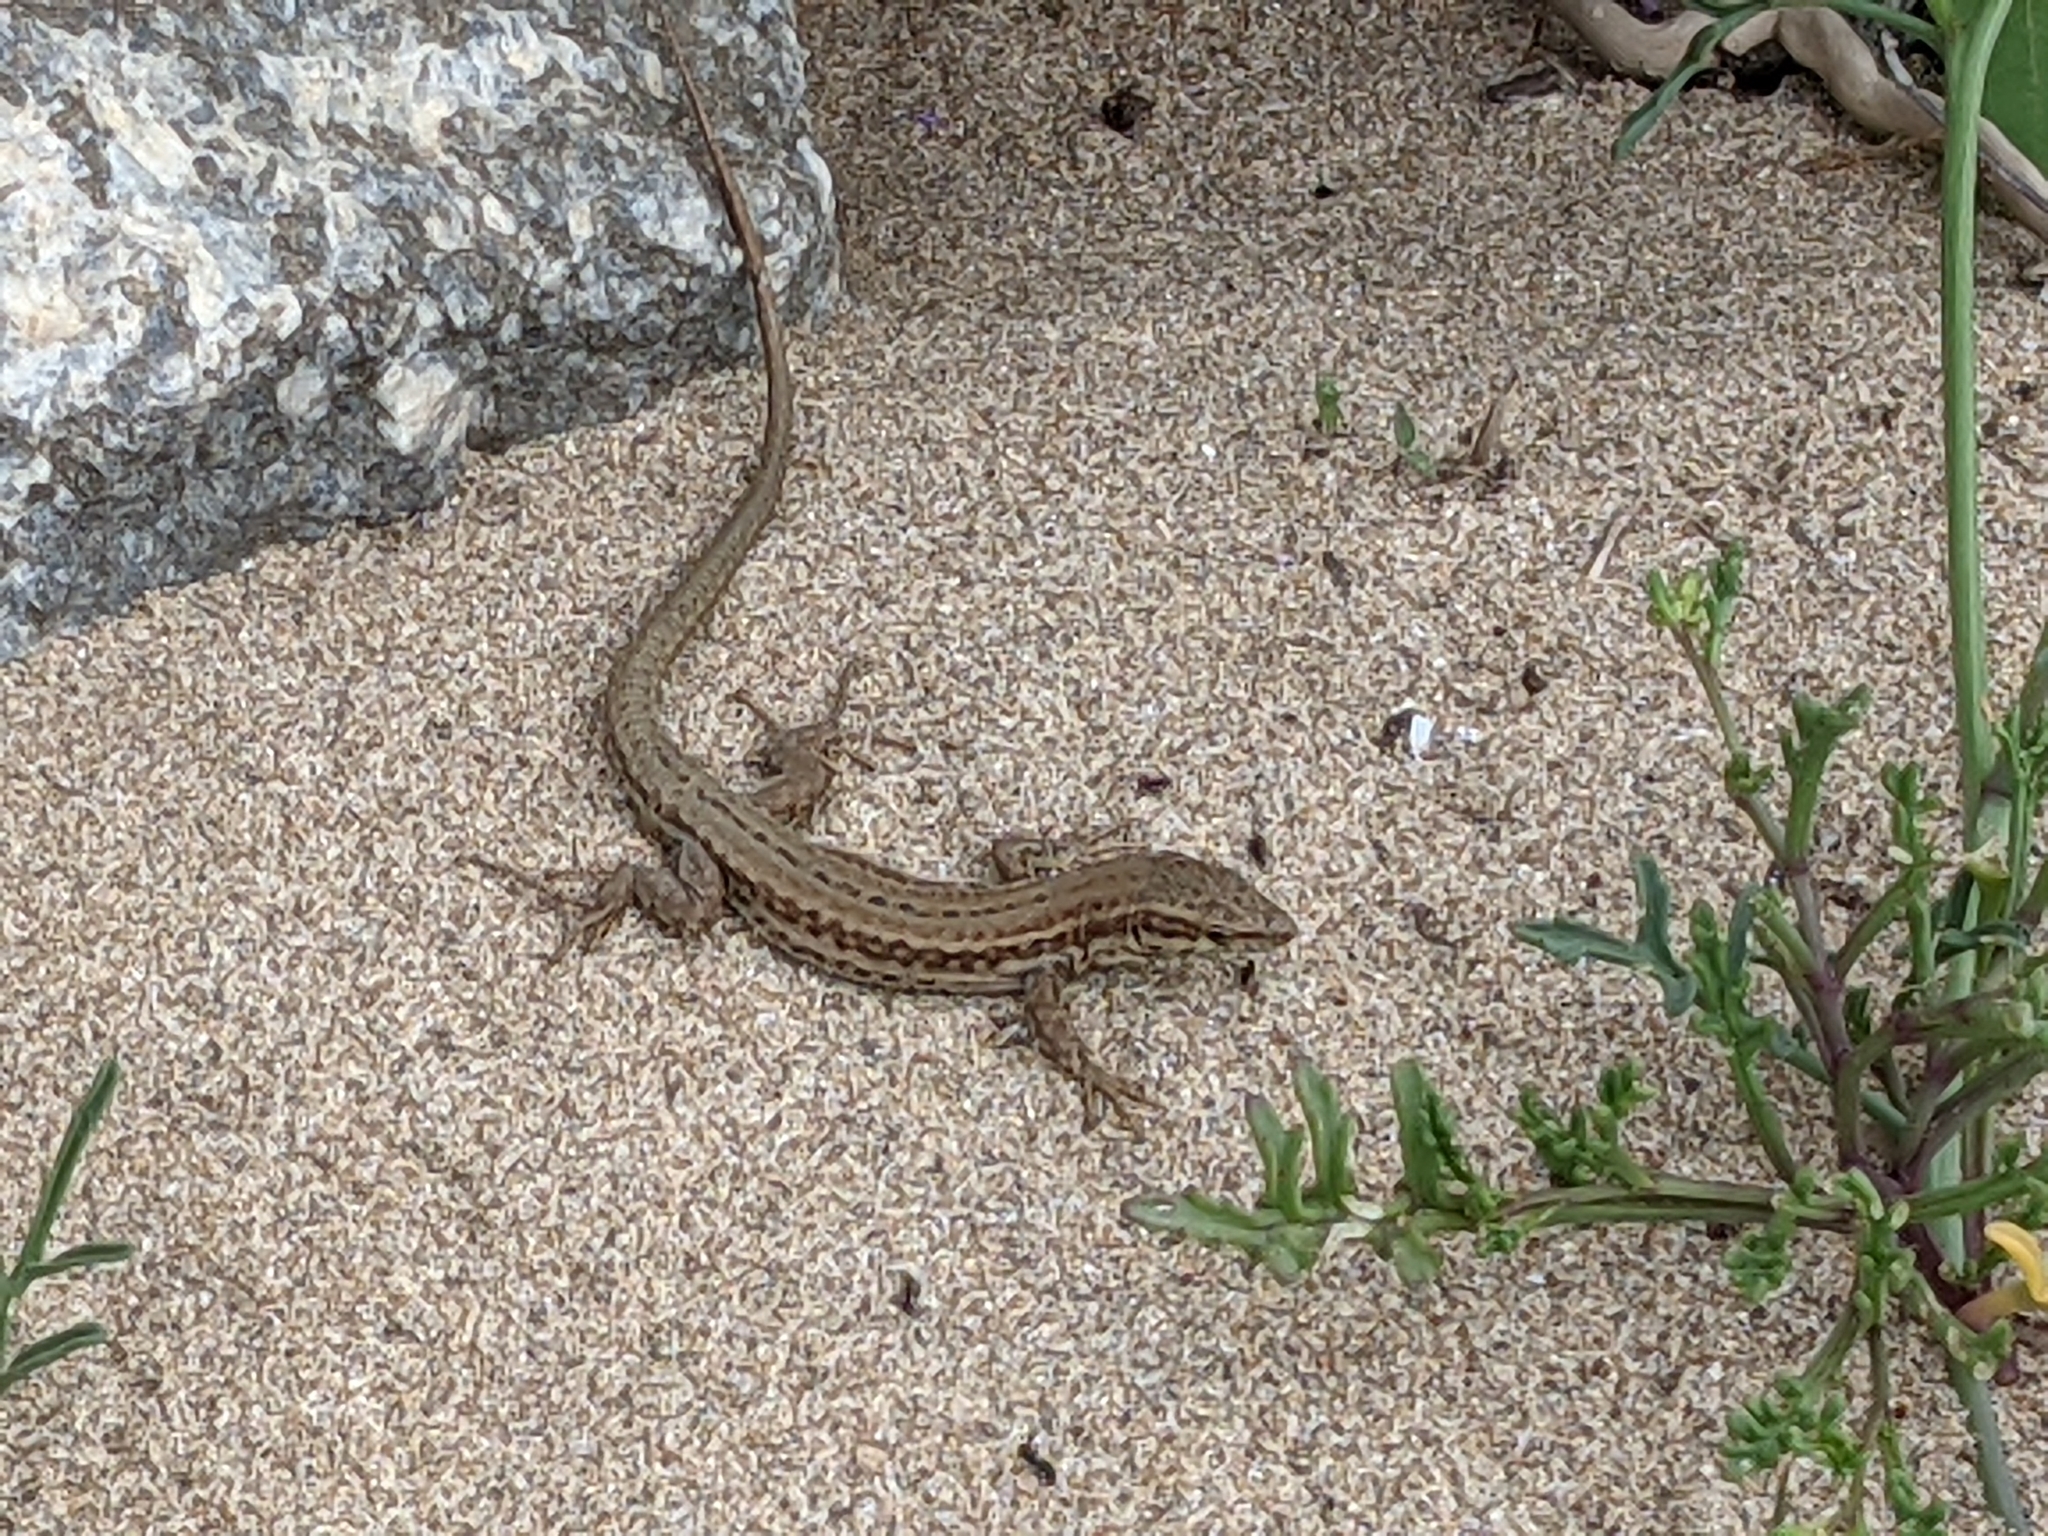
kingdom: Animalia
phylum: Chordata
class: Squamata
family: Lacertidae
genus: Podarcis
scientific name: Podarcis liolepis
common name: Catalonian wall lizard
